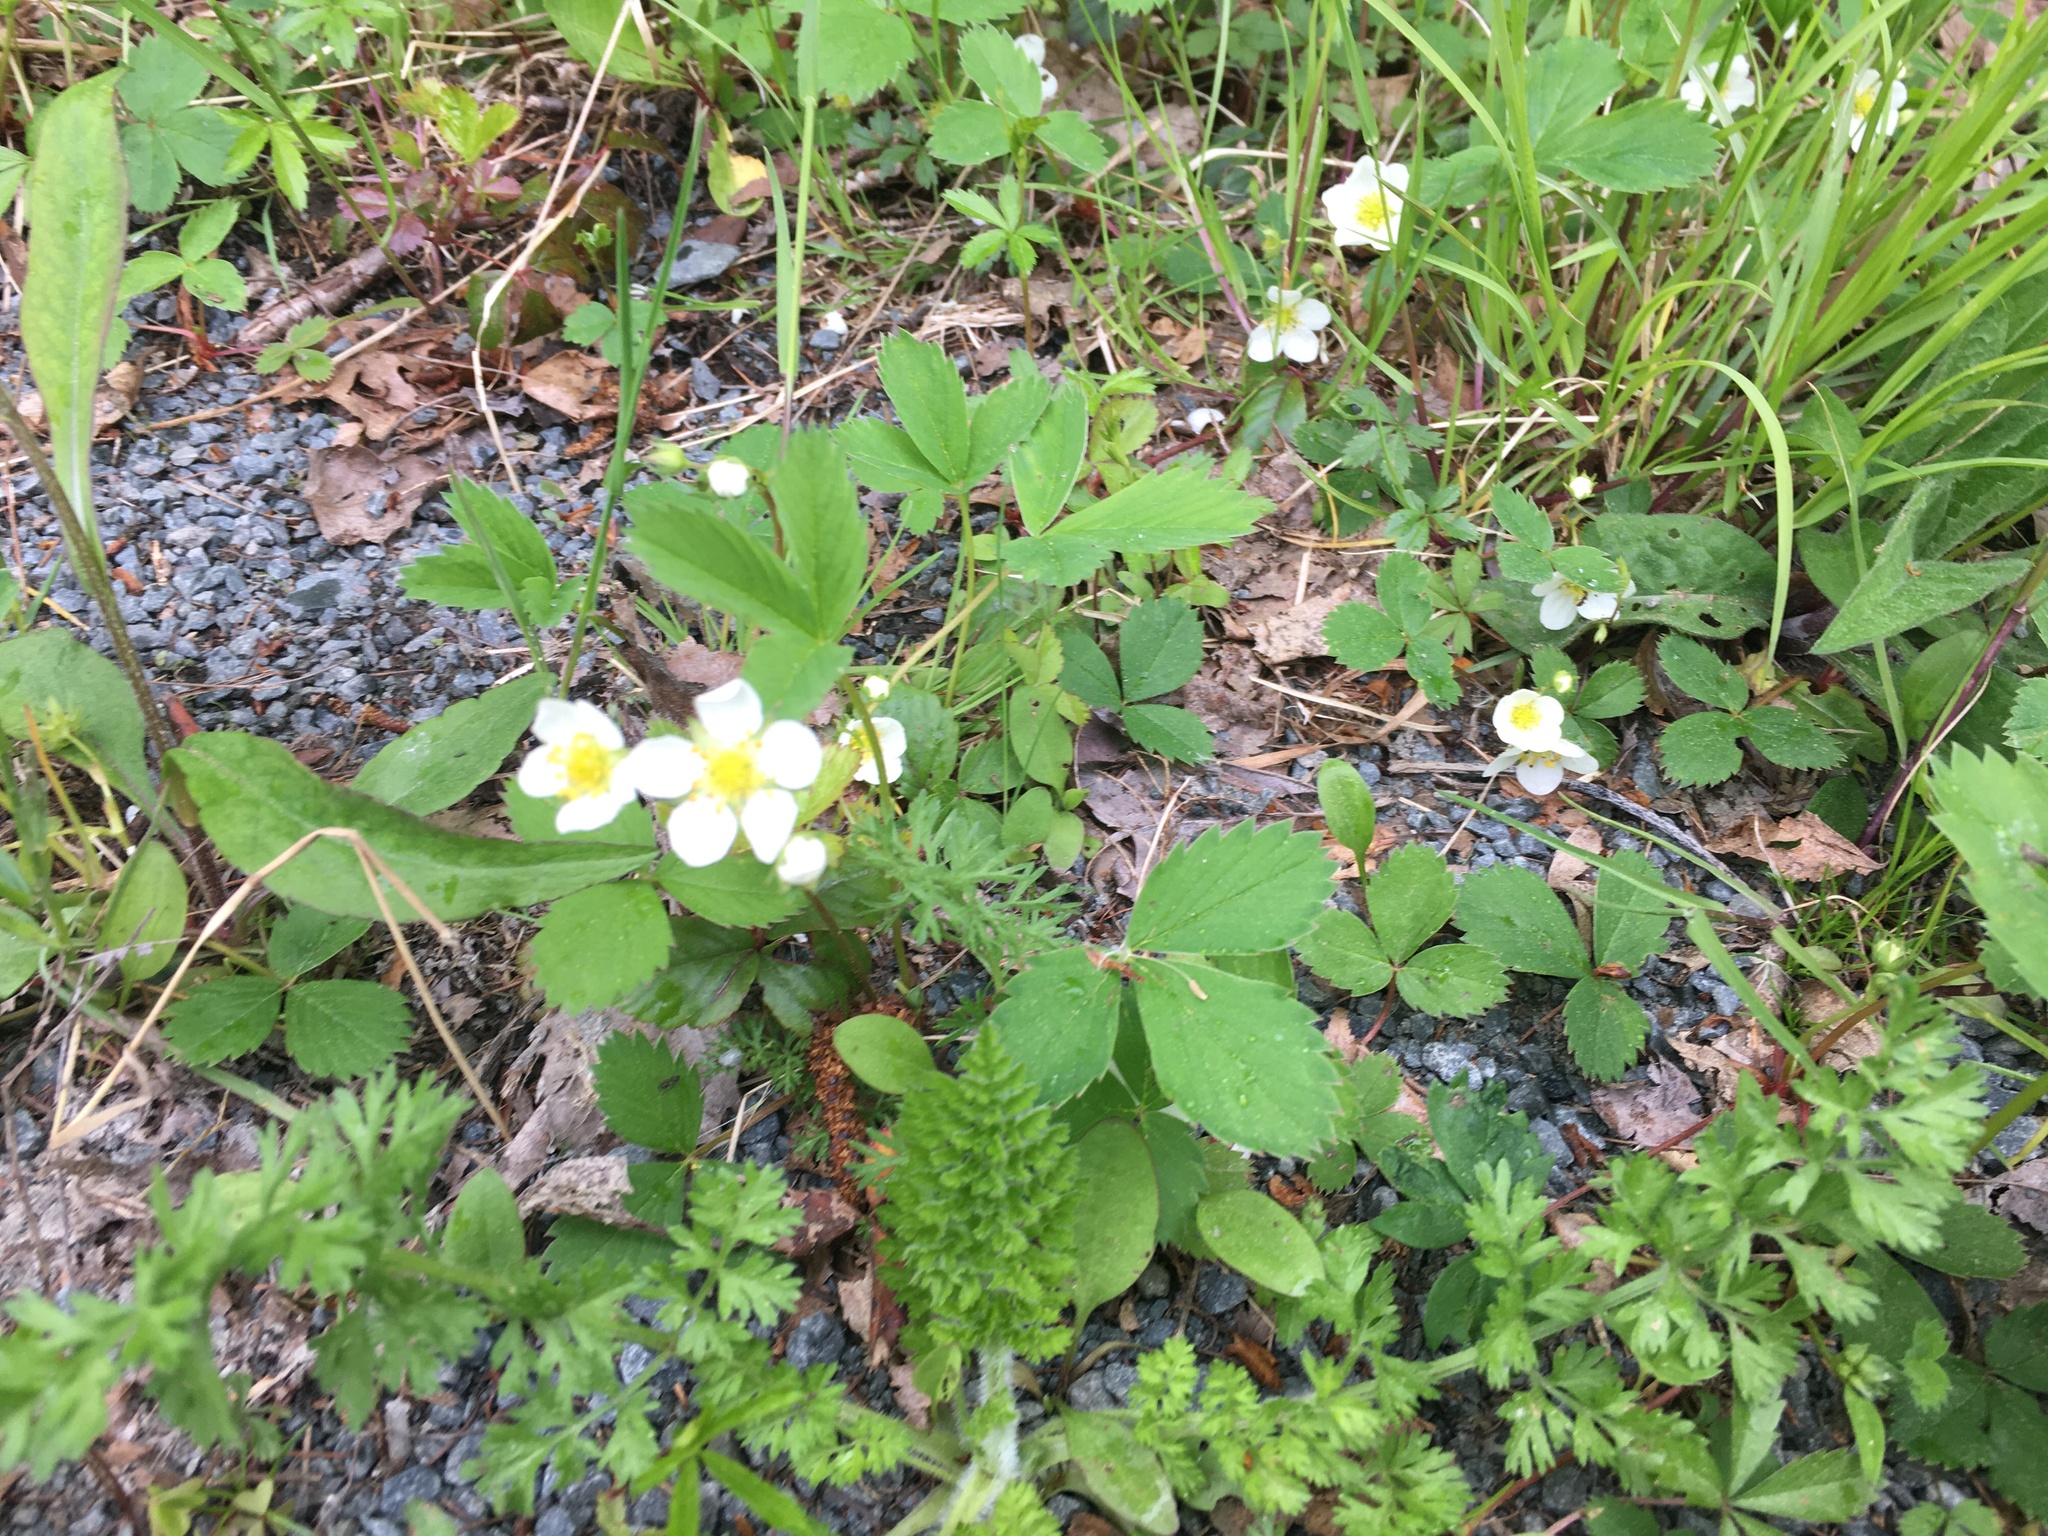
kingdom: Plantae
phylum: Tracheophyta
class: Magnoliopsida
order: Rosales
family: Rosaceae
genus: Fragaria
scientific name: Fragaria virginiana
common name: Thickleaved wild strawberry
